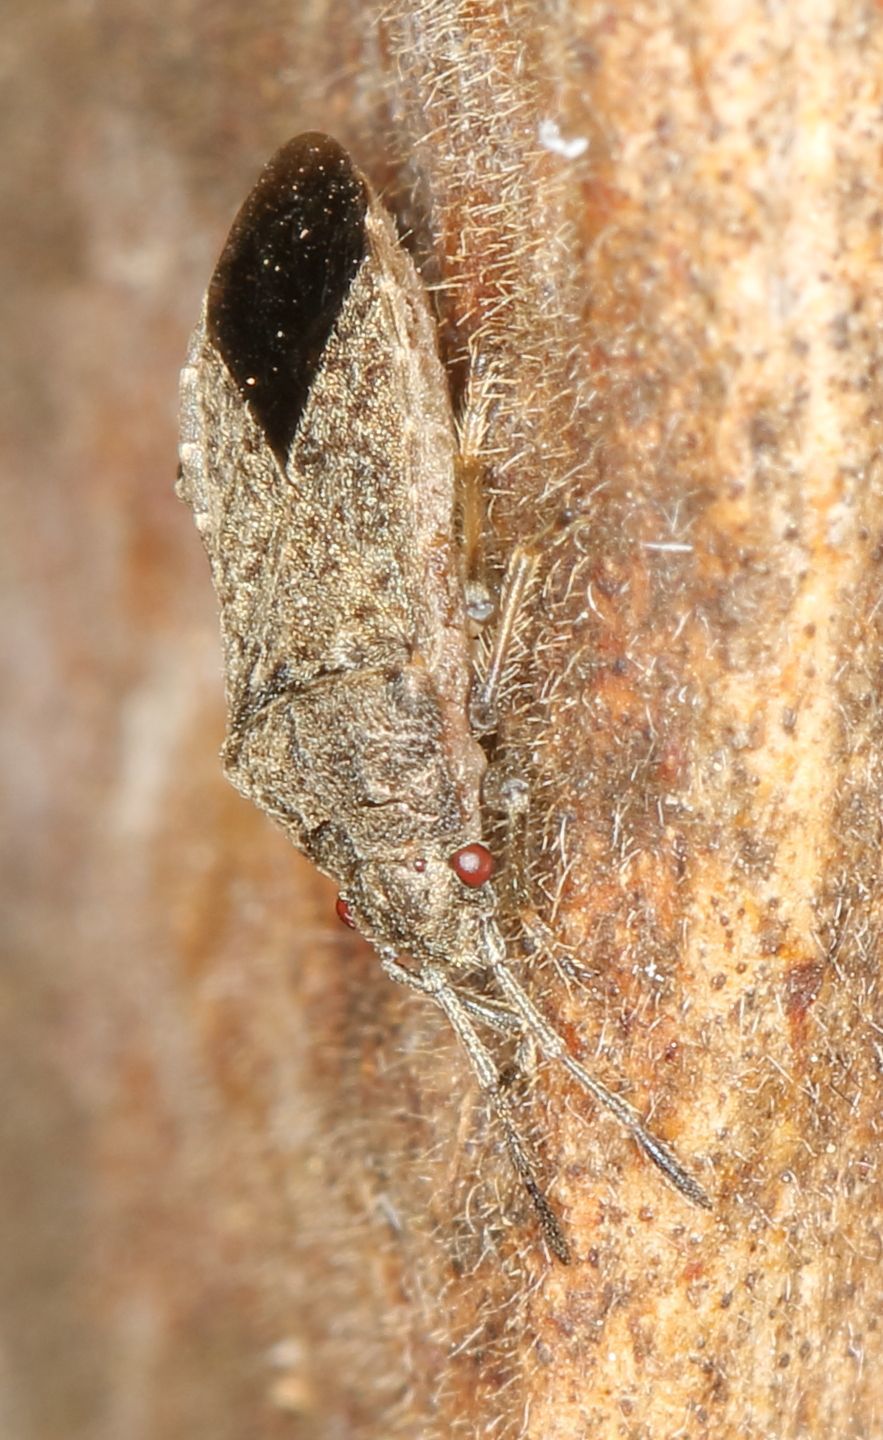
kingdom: Animalia
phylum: Arthropoda
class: Insecta
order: Hemiptera
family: Lygaeidae
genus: Arocatus
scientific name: Arocatus suboeneus
